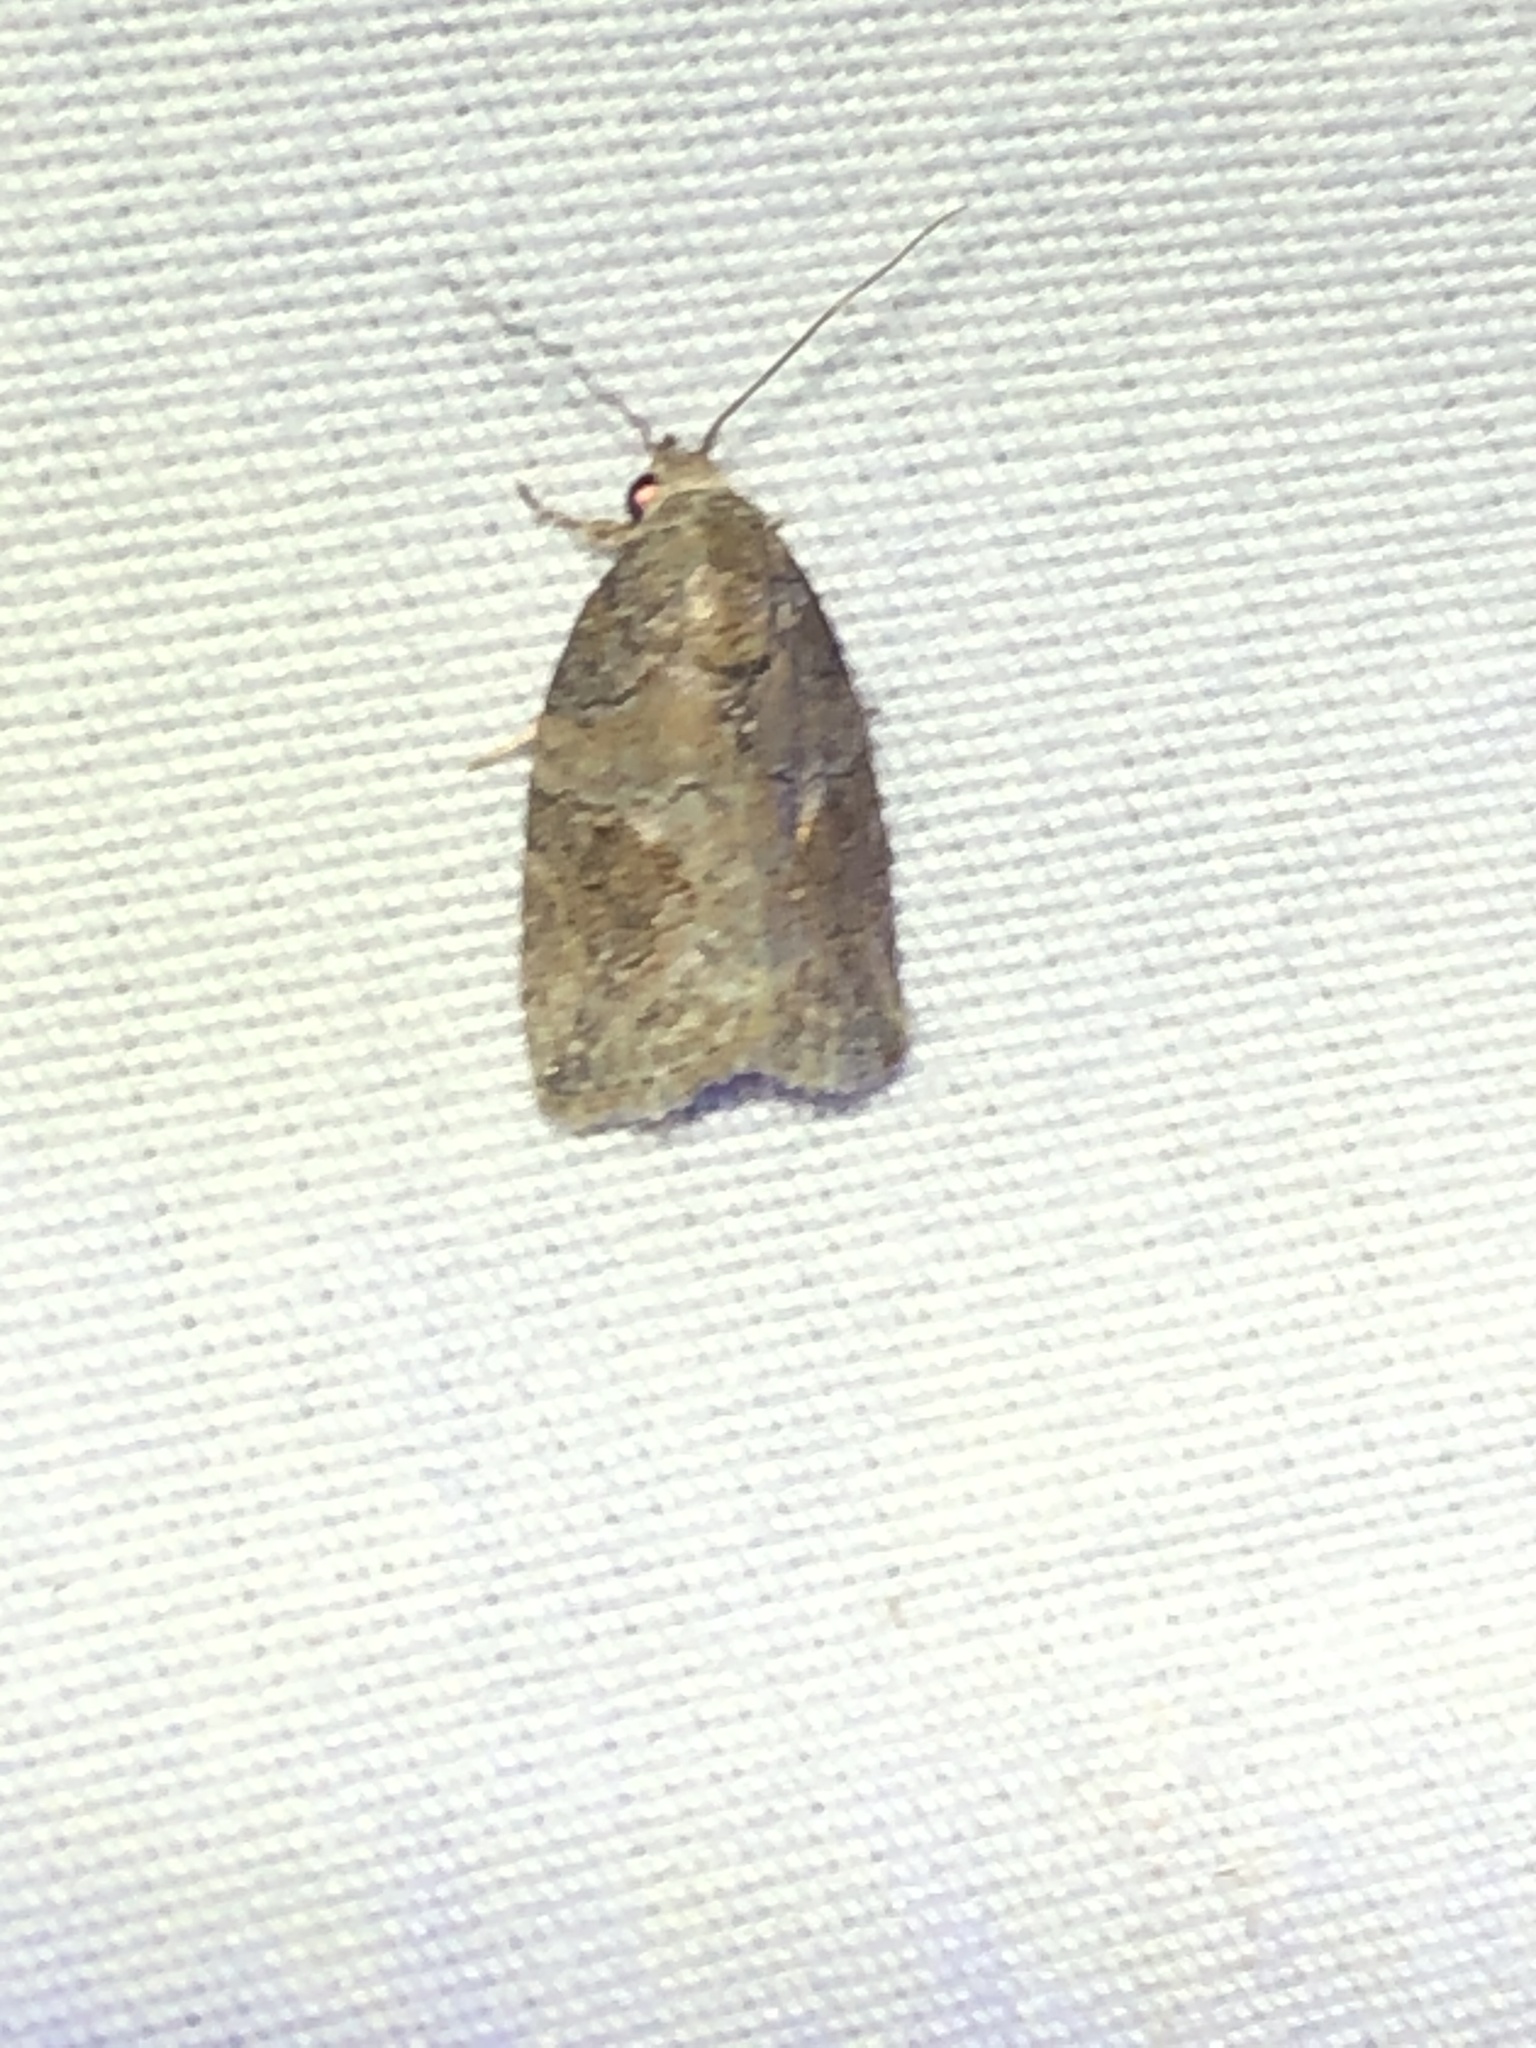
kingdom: Animalia
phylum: Arthropoda
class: Insecta
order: Lepidoptera
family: Nolidae
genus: Garella
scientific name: Garella nilotica
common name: Black-olive caterpillar moth
